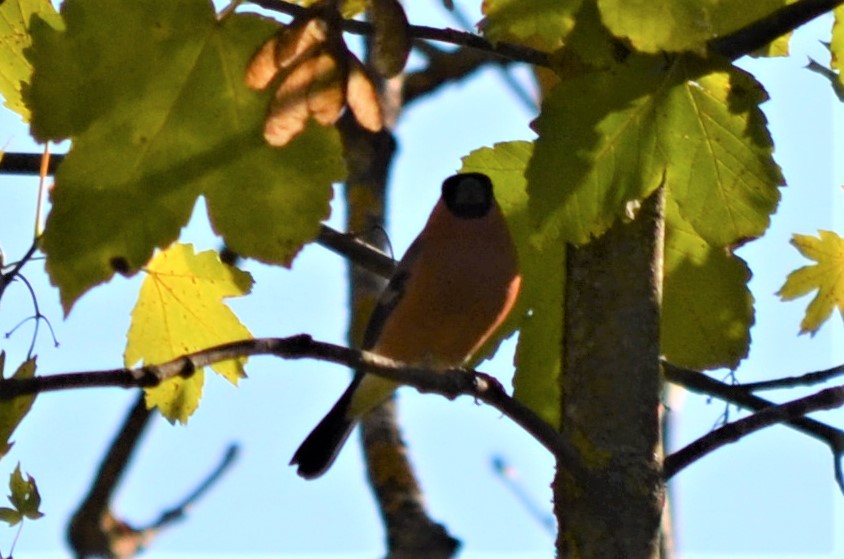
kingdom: Animalia
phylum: Chordata
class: Aves
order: Passeriformes
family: Fringillidae
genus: Pyrrhula
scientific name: Pyrrhula pyrrhula
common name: Eurasian bullfinch
